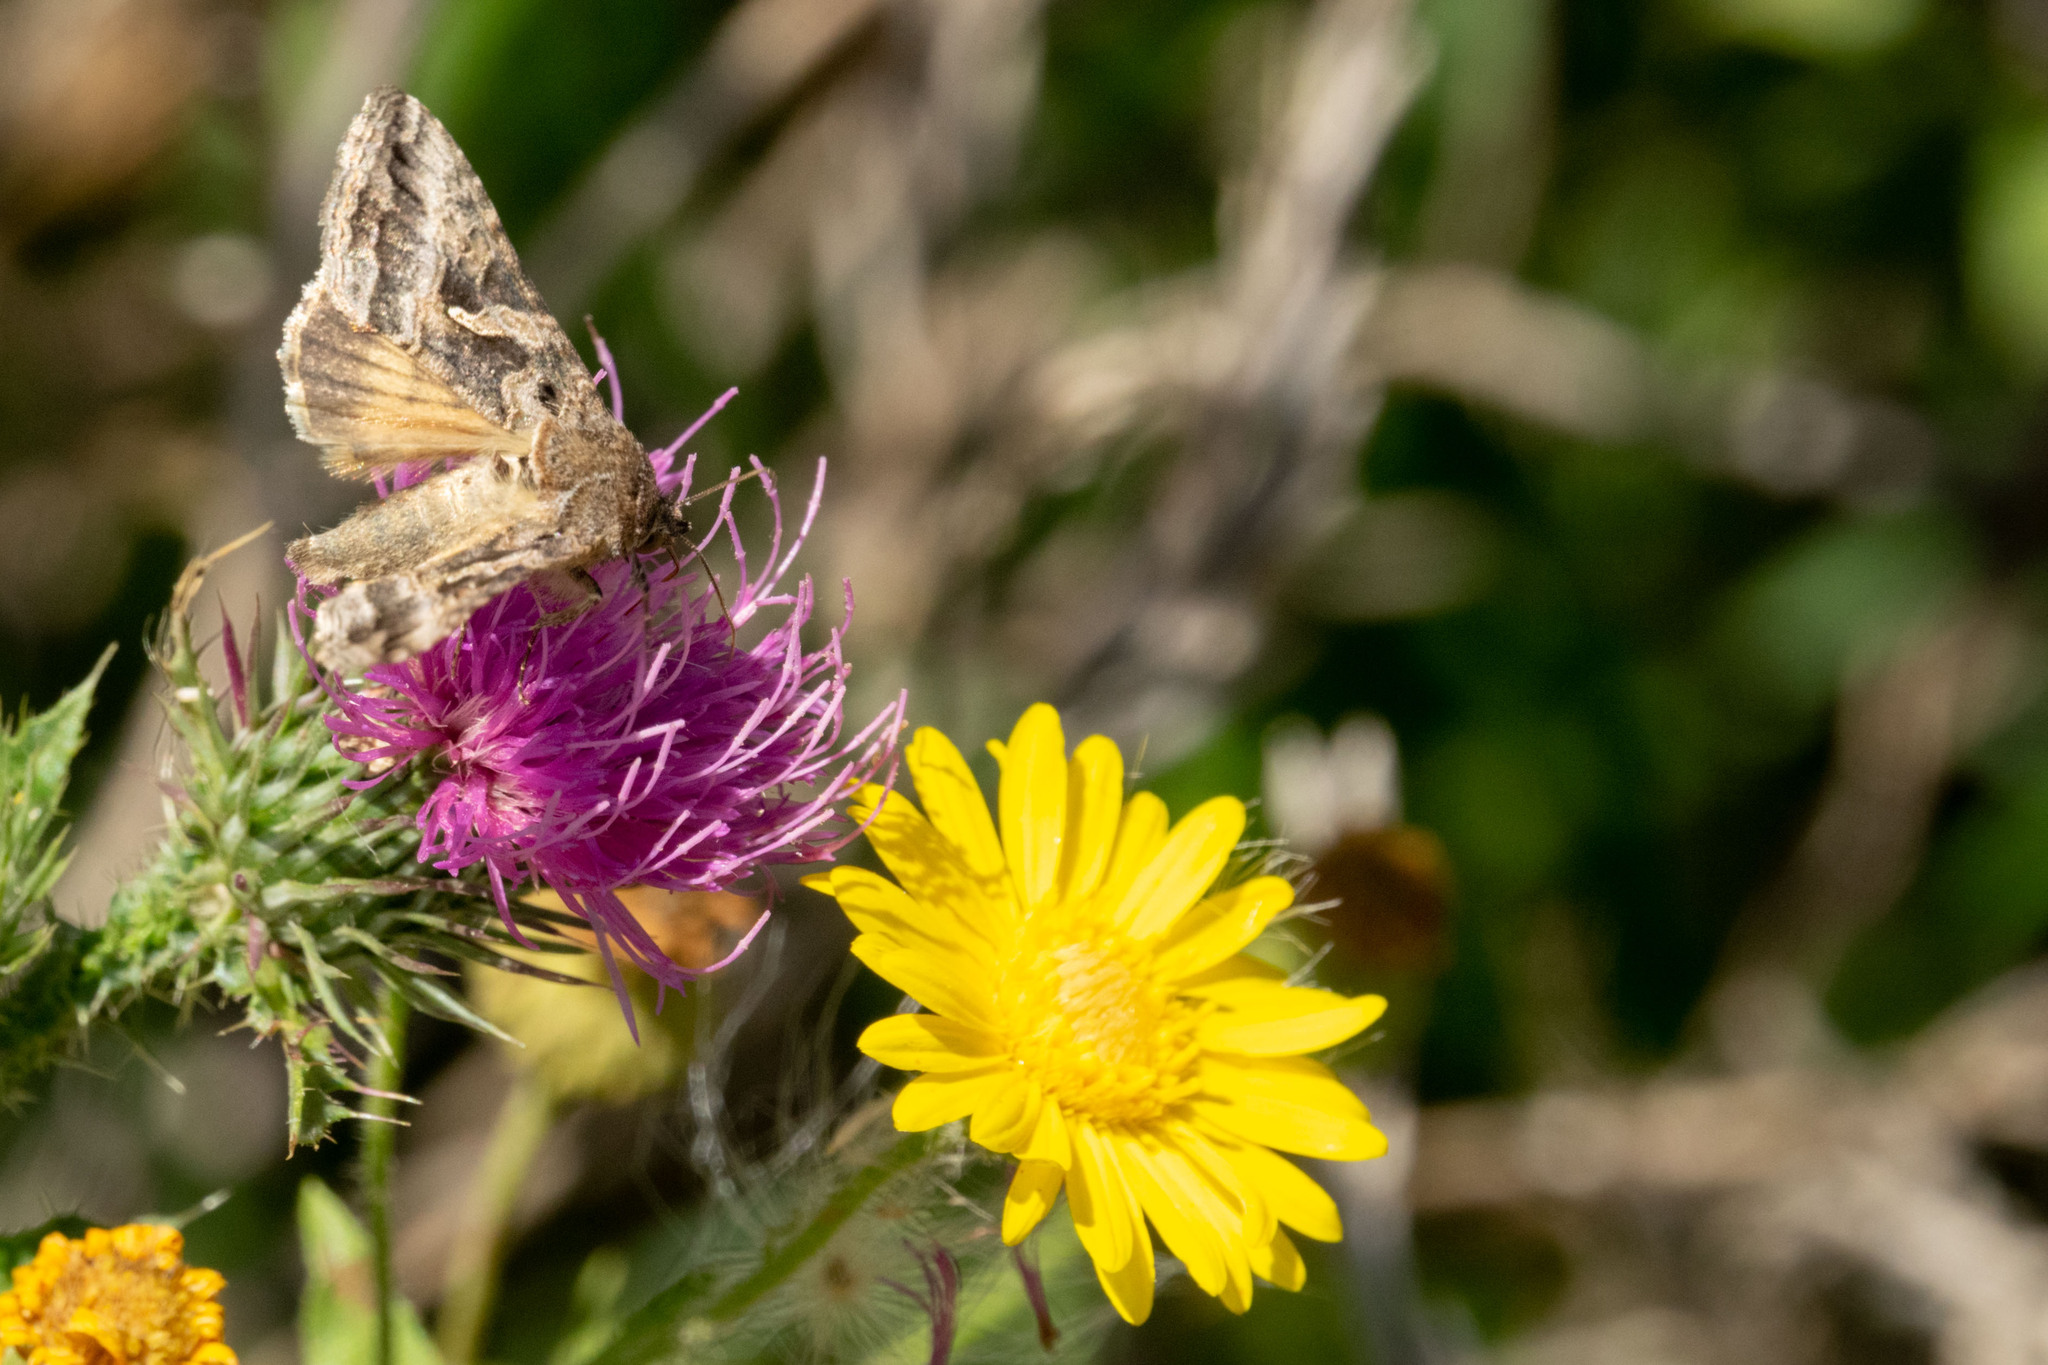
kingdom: Animalia
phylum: Arthropoda
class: Insecta
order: Lepidoptera
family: Noctuidae
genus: Rachiplusia
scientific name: Rachiplusia nu
